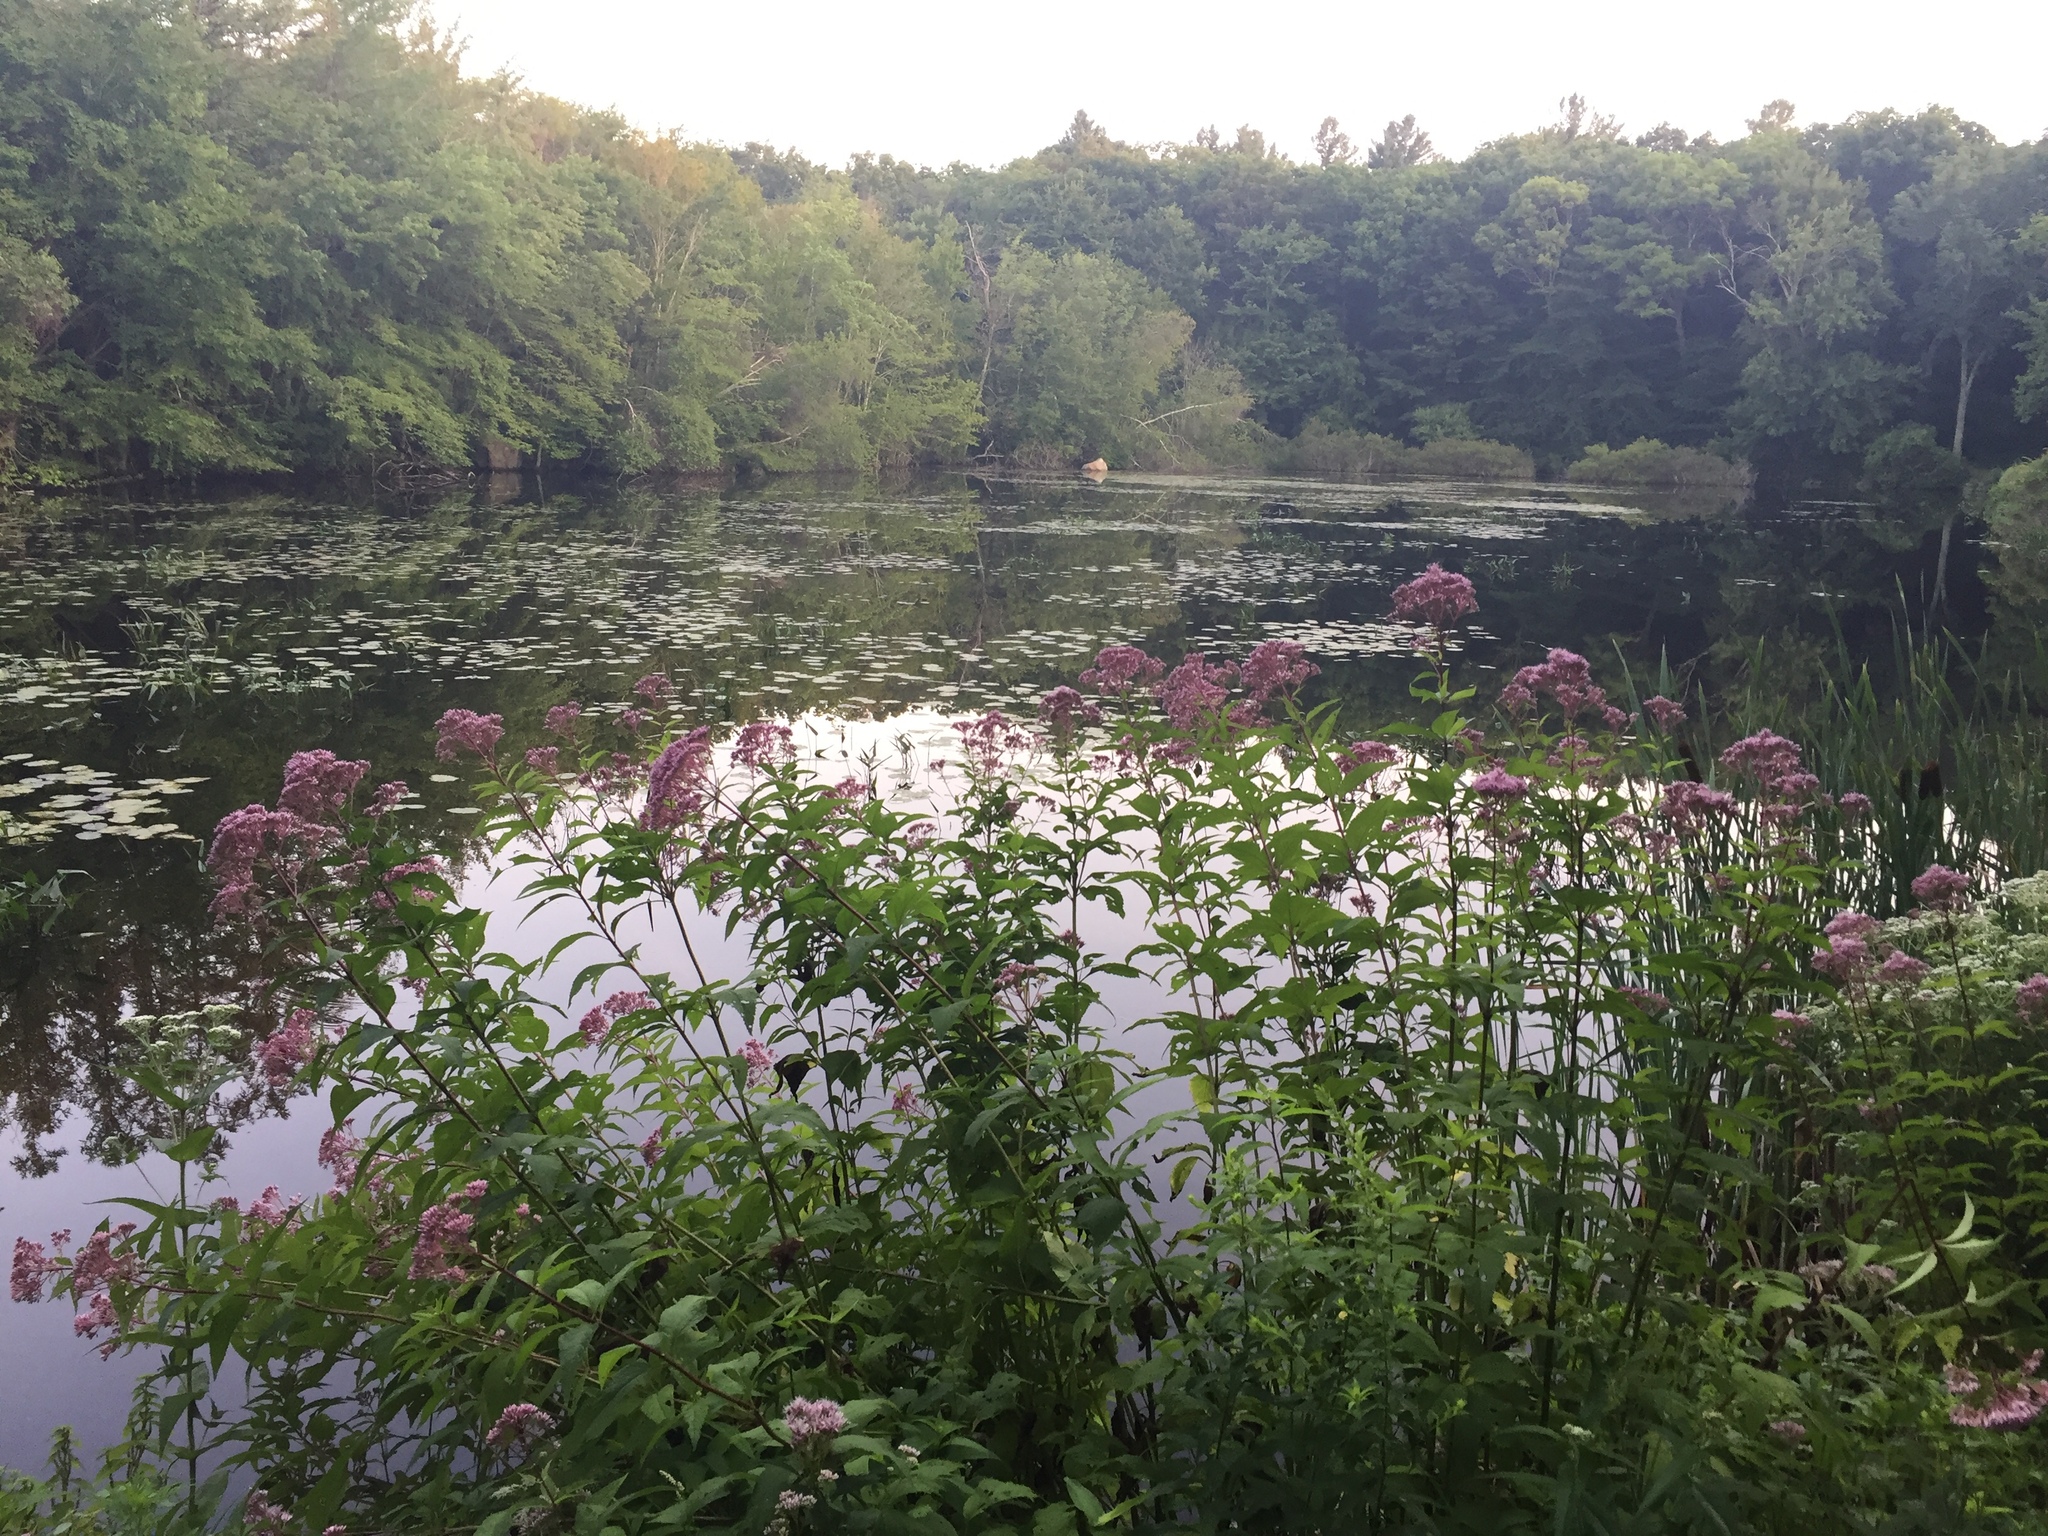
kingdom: Plantae
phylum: Tracheophyta
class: Magnoliopsida
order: Asterales
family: Asteraceae
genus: Eutrochium
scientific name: Eutrochium dubium
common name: Coastal plain joe pye weed
